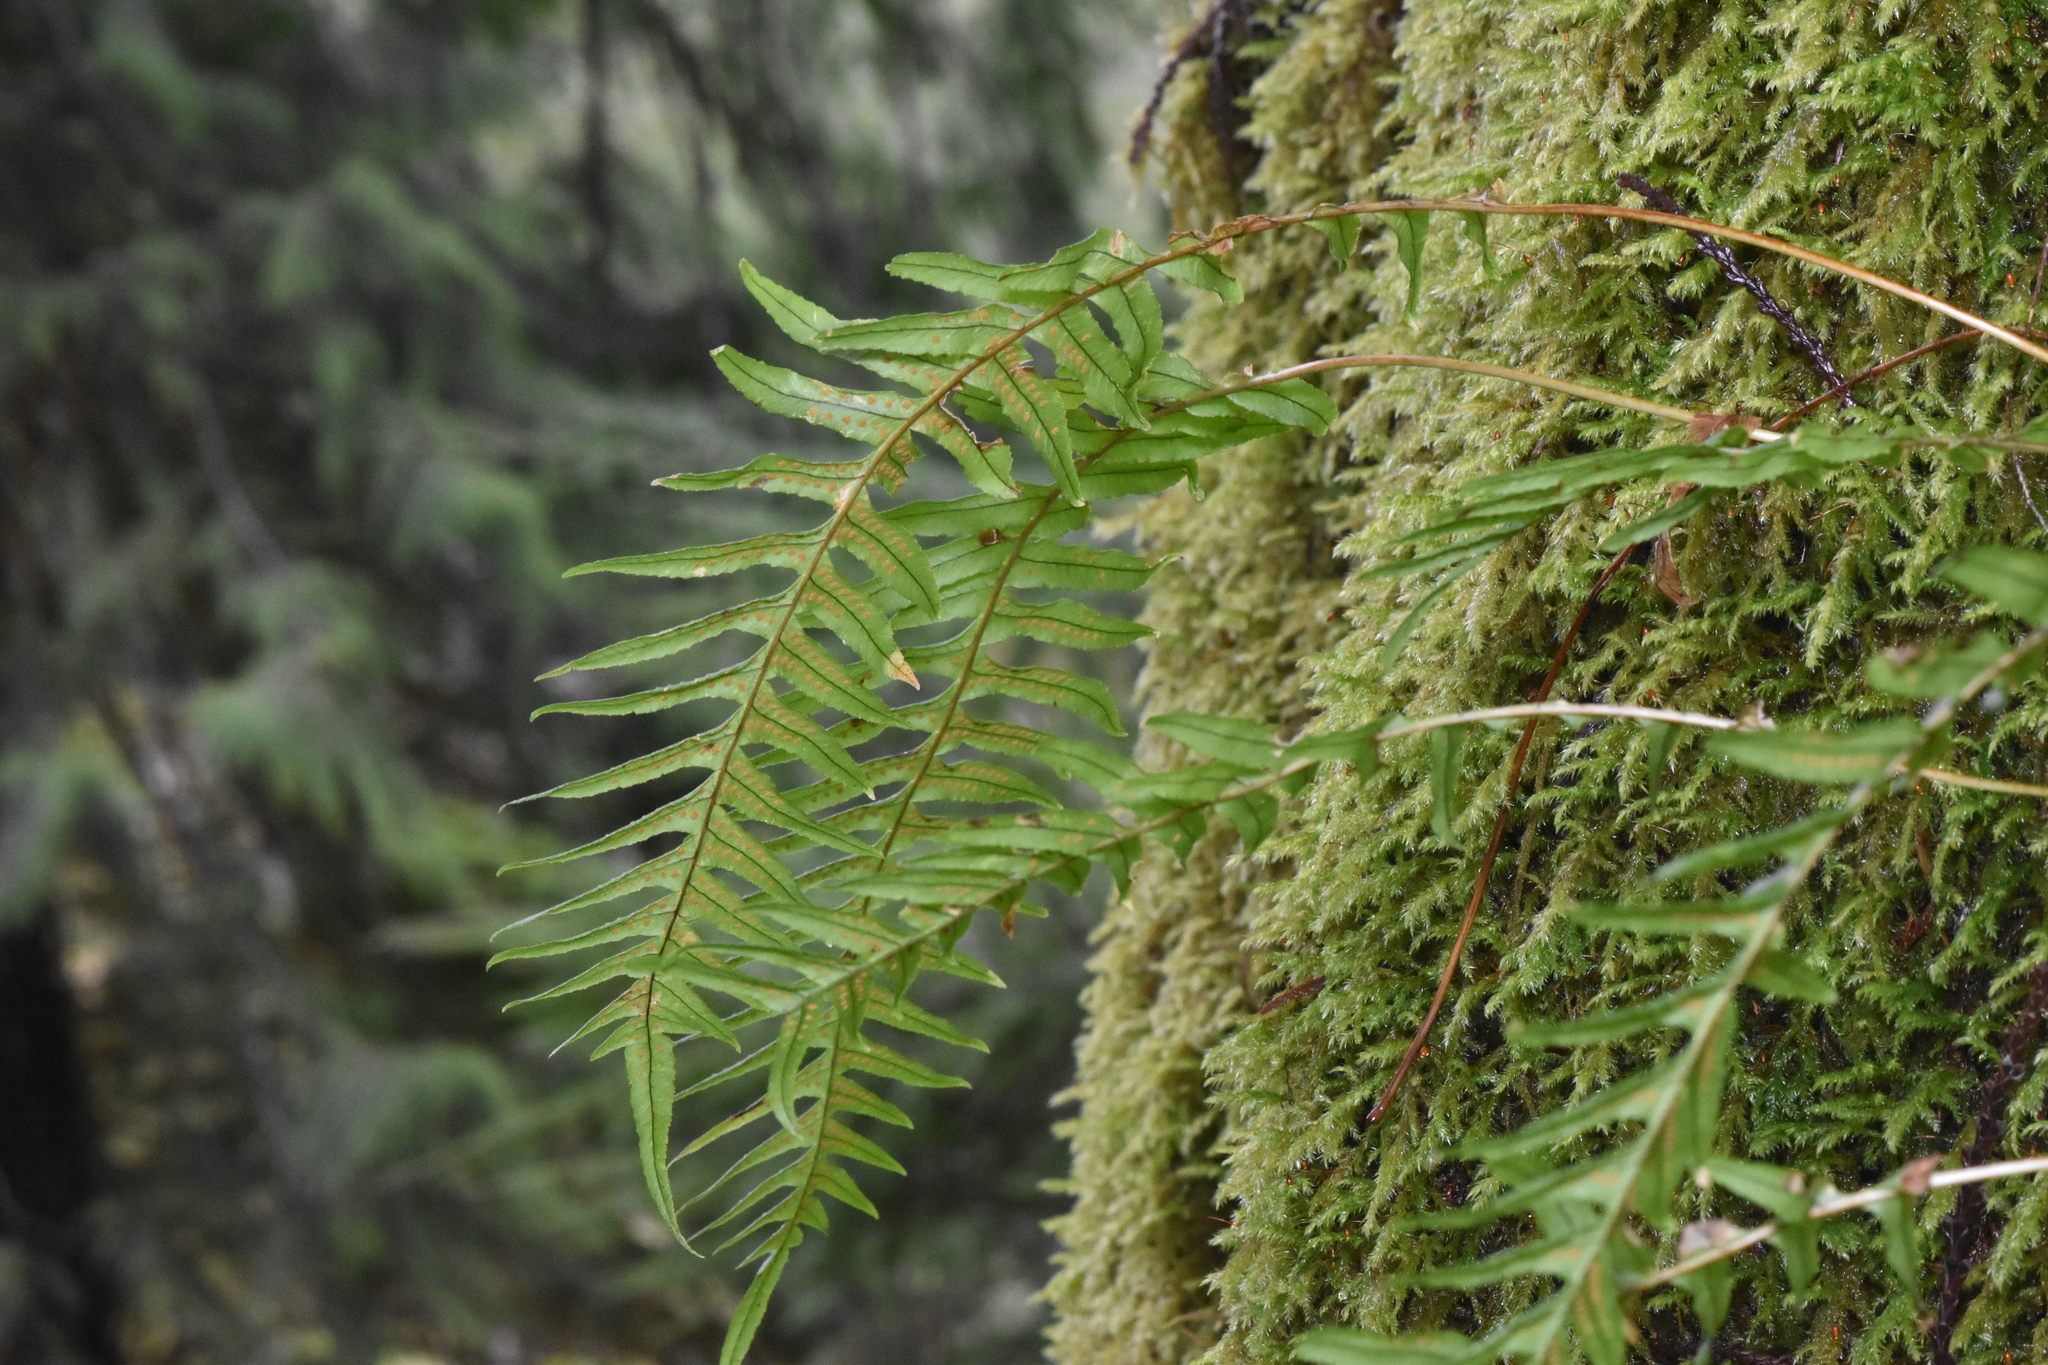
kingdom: Plantae
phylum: Tracheophyta
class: Polypodiopsida
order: Polypodiales
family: Polypodiaceae
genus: Polypodium
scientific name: Polypodium glycyrrhiza
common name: Licorice fern
